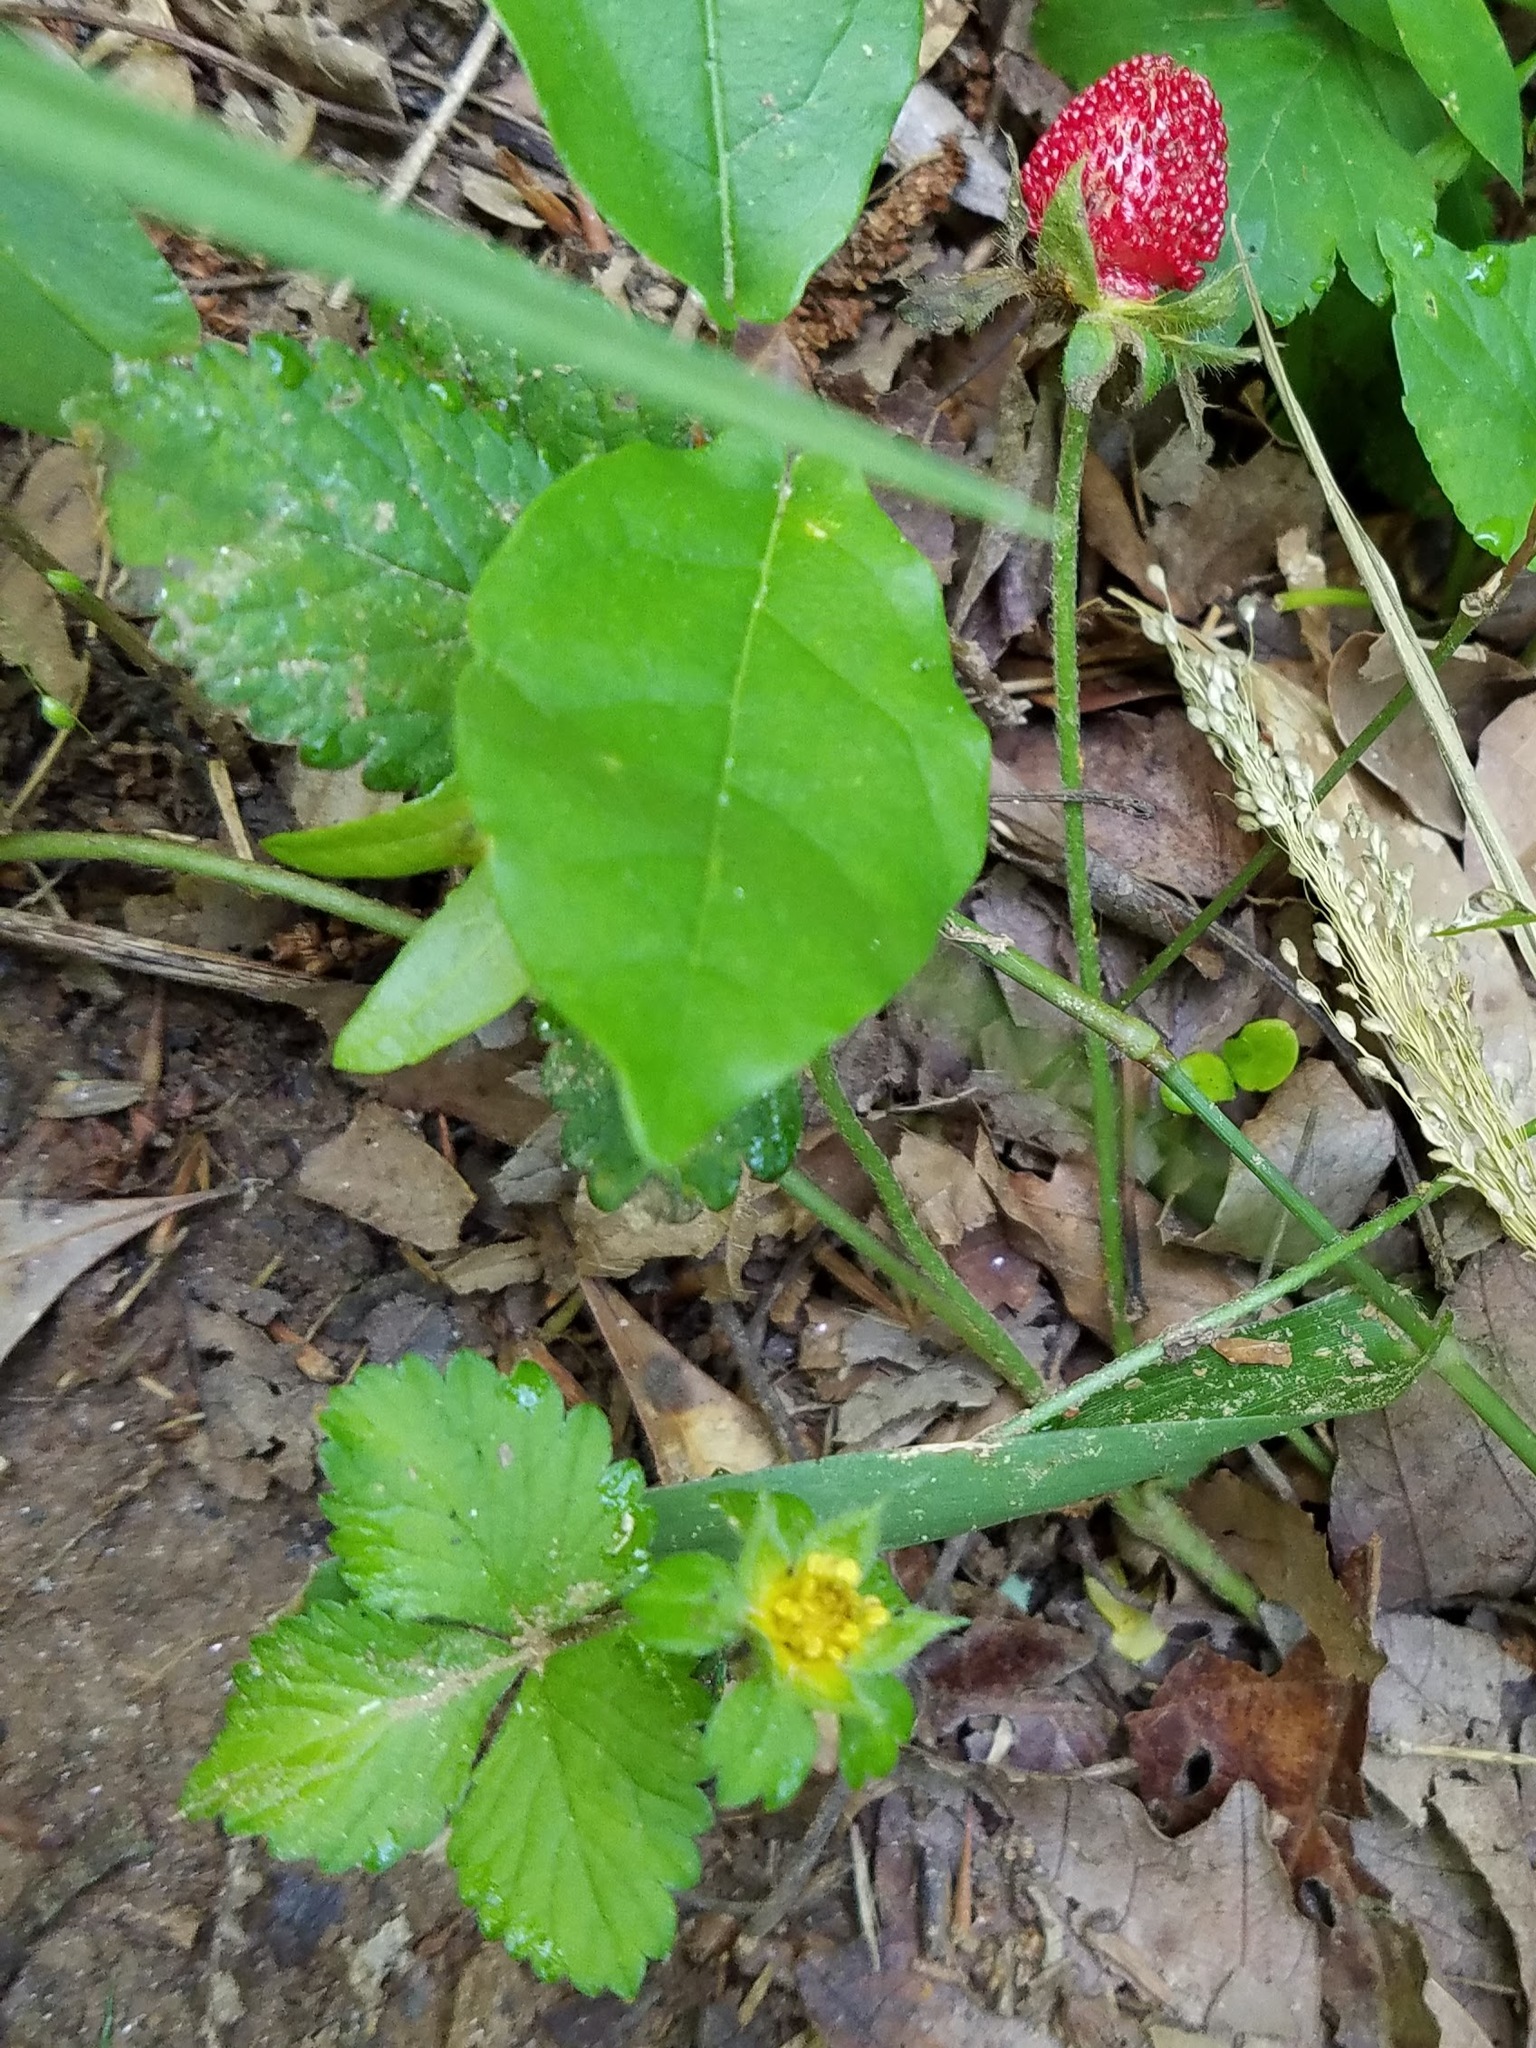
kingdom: Plantae
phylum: Tracheophyta
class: Magnoliopsida
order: Rosales
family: Rosaceae
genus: Potentilla
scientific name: Potentilla indica
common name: Yellow-flowered strawberry
